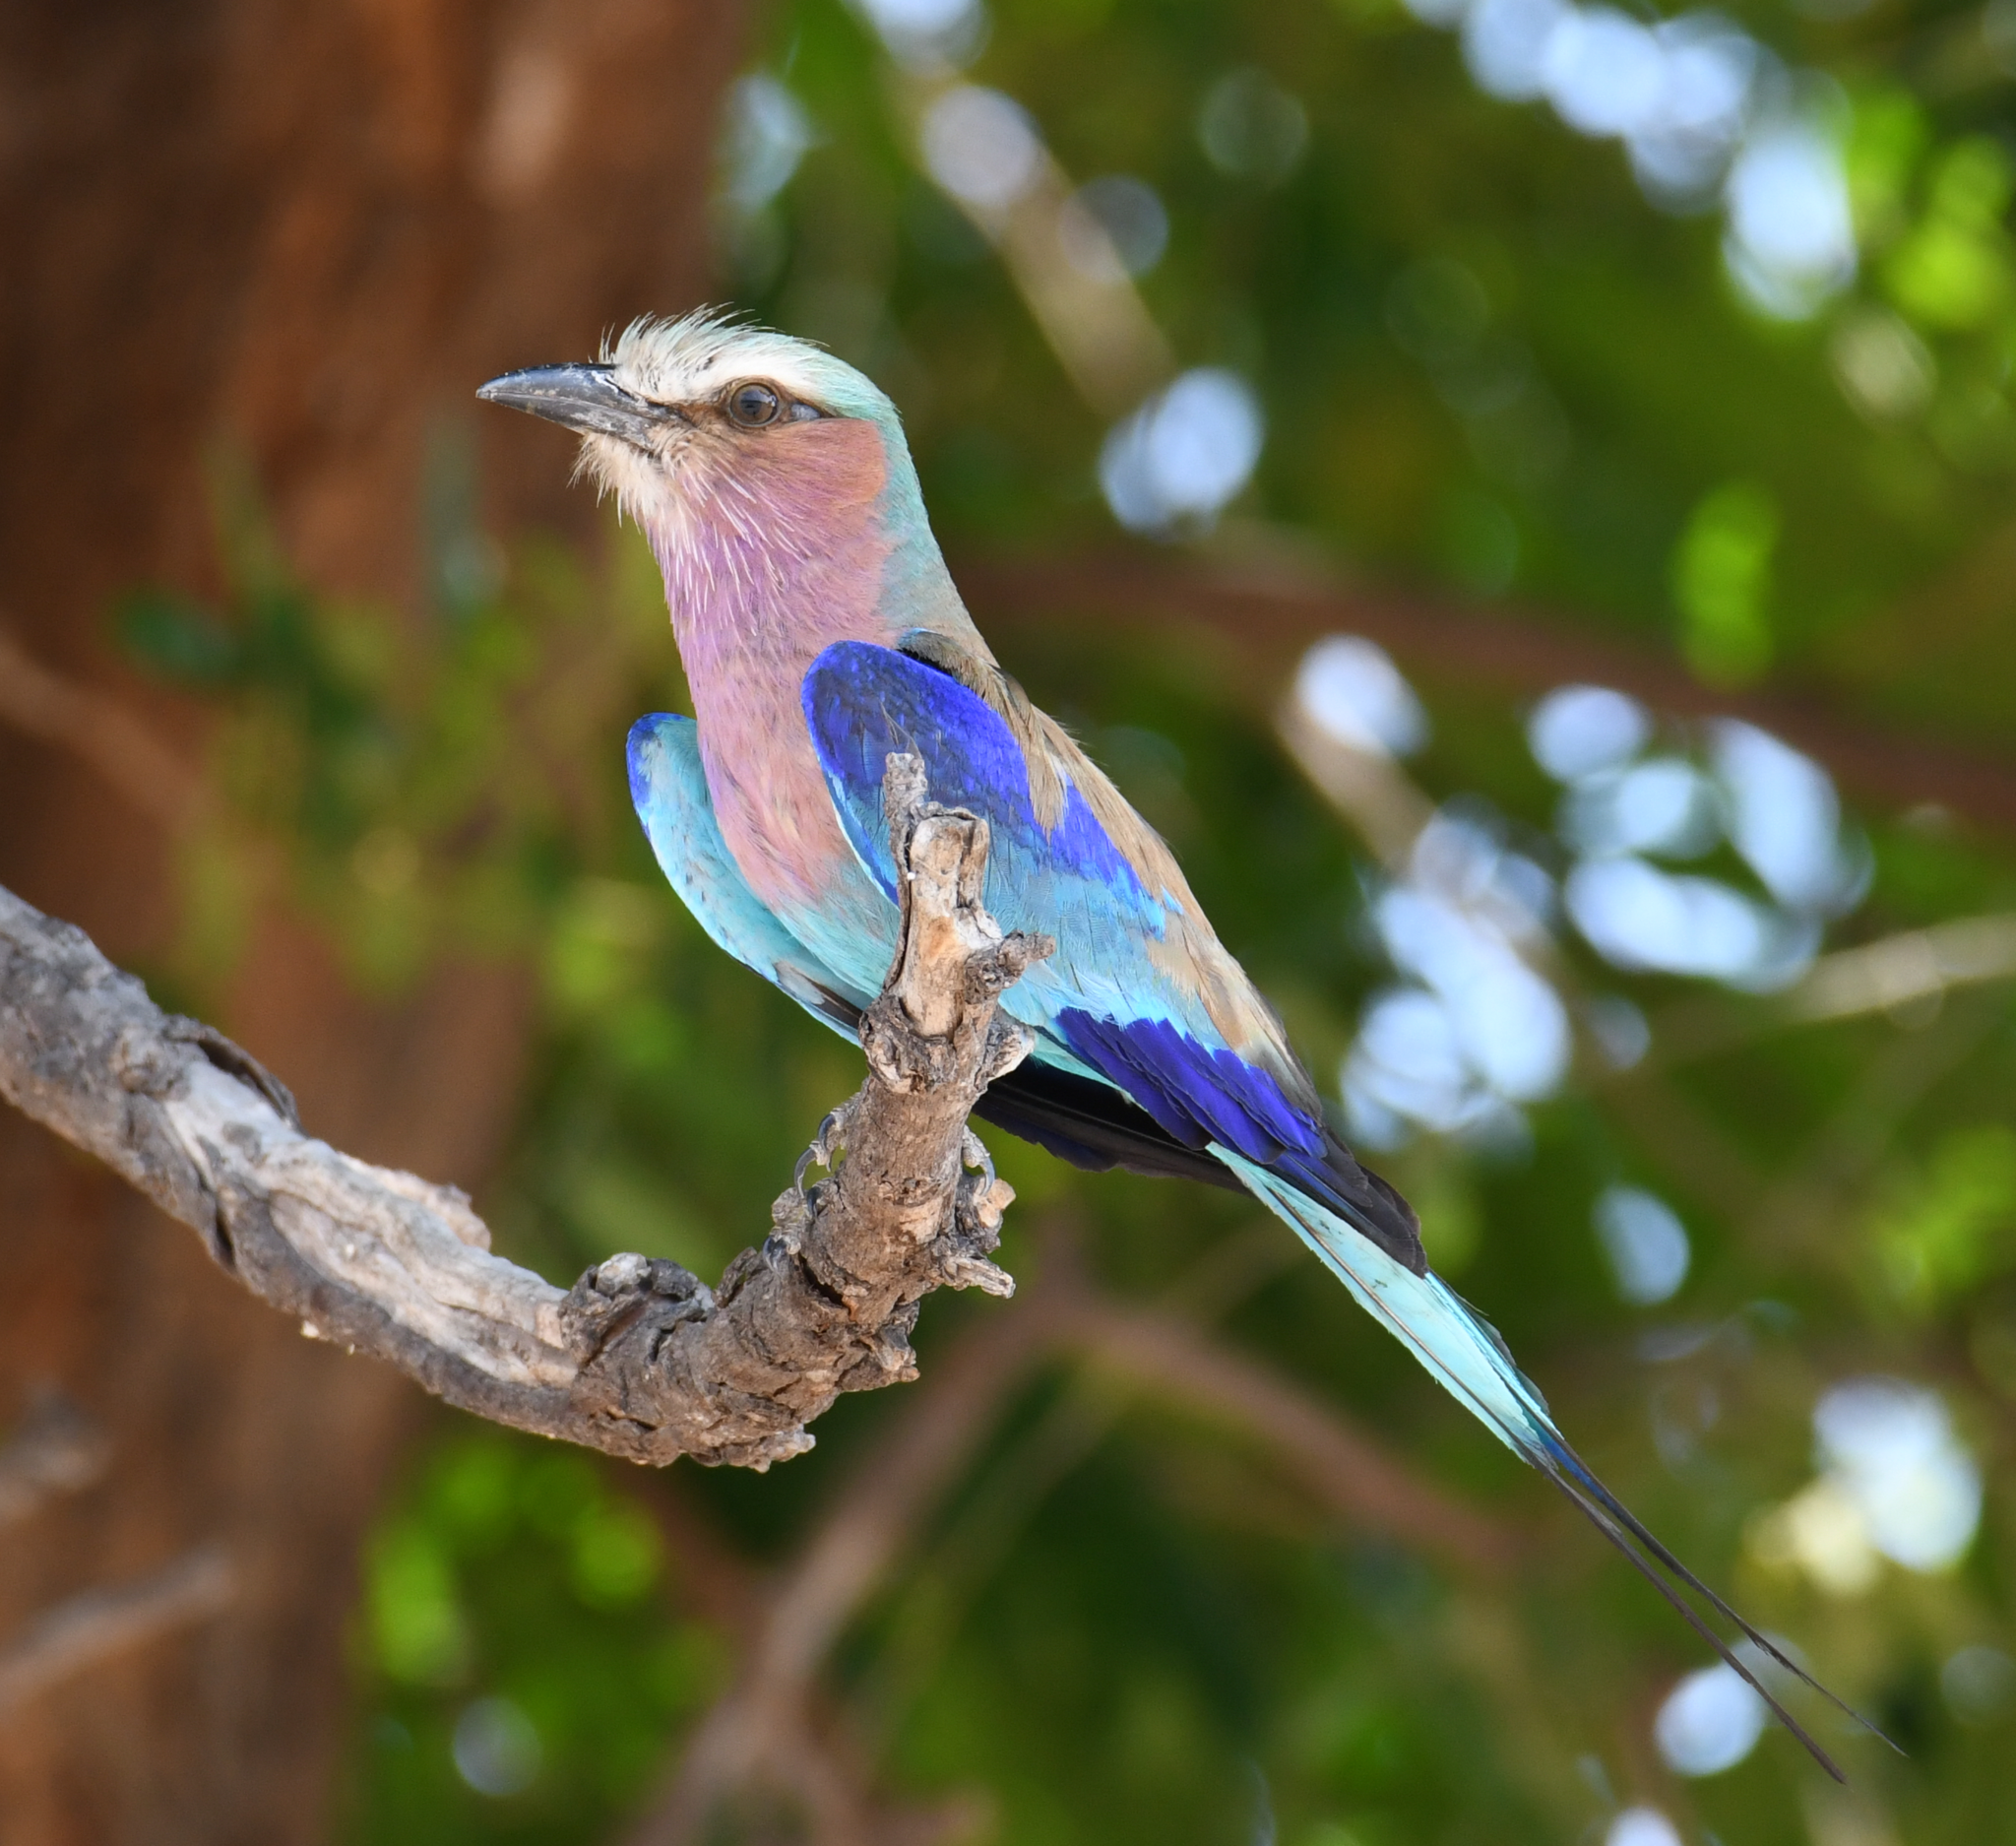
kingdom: Animalia
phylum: Chordata
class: Aves
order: Coraciiformes
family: Coraciidae
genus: Coracias
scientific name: Coracias caudatus
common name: Lilac-breasted roller
